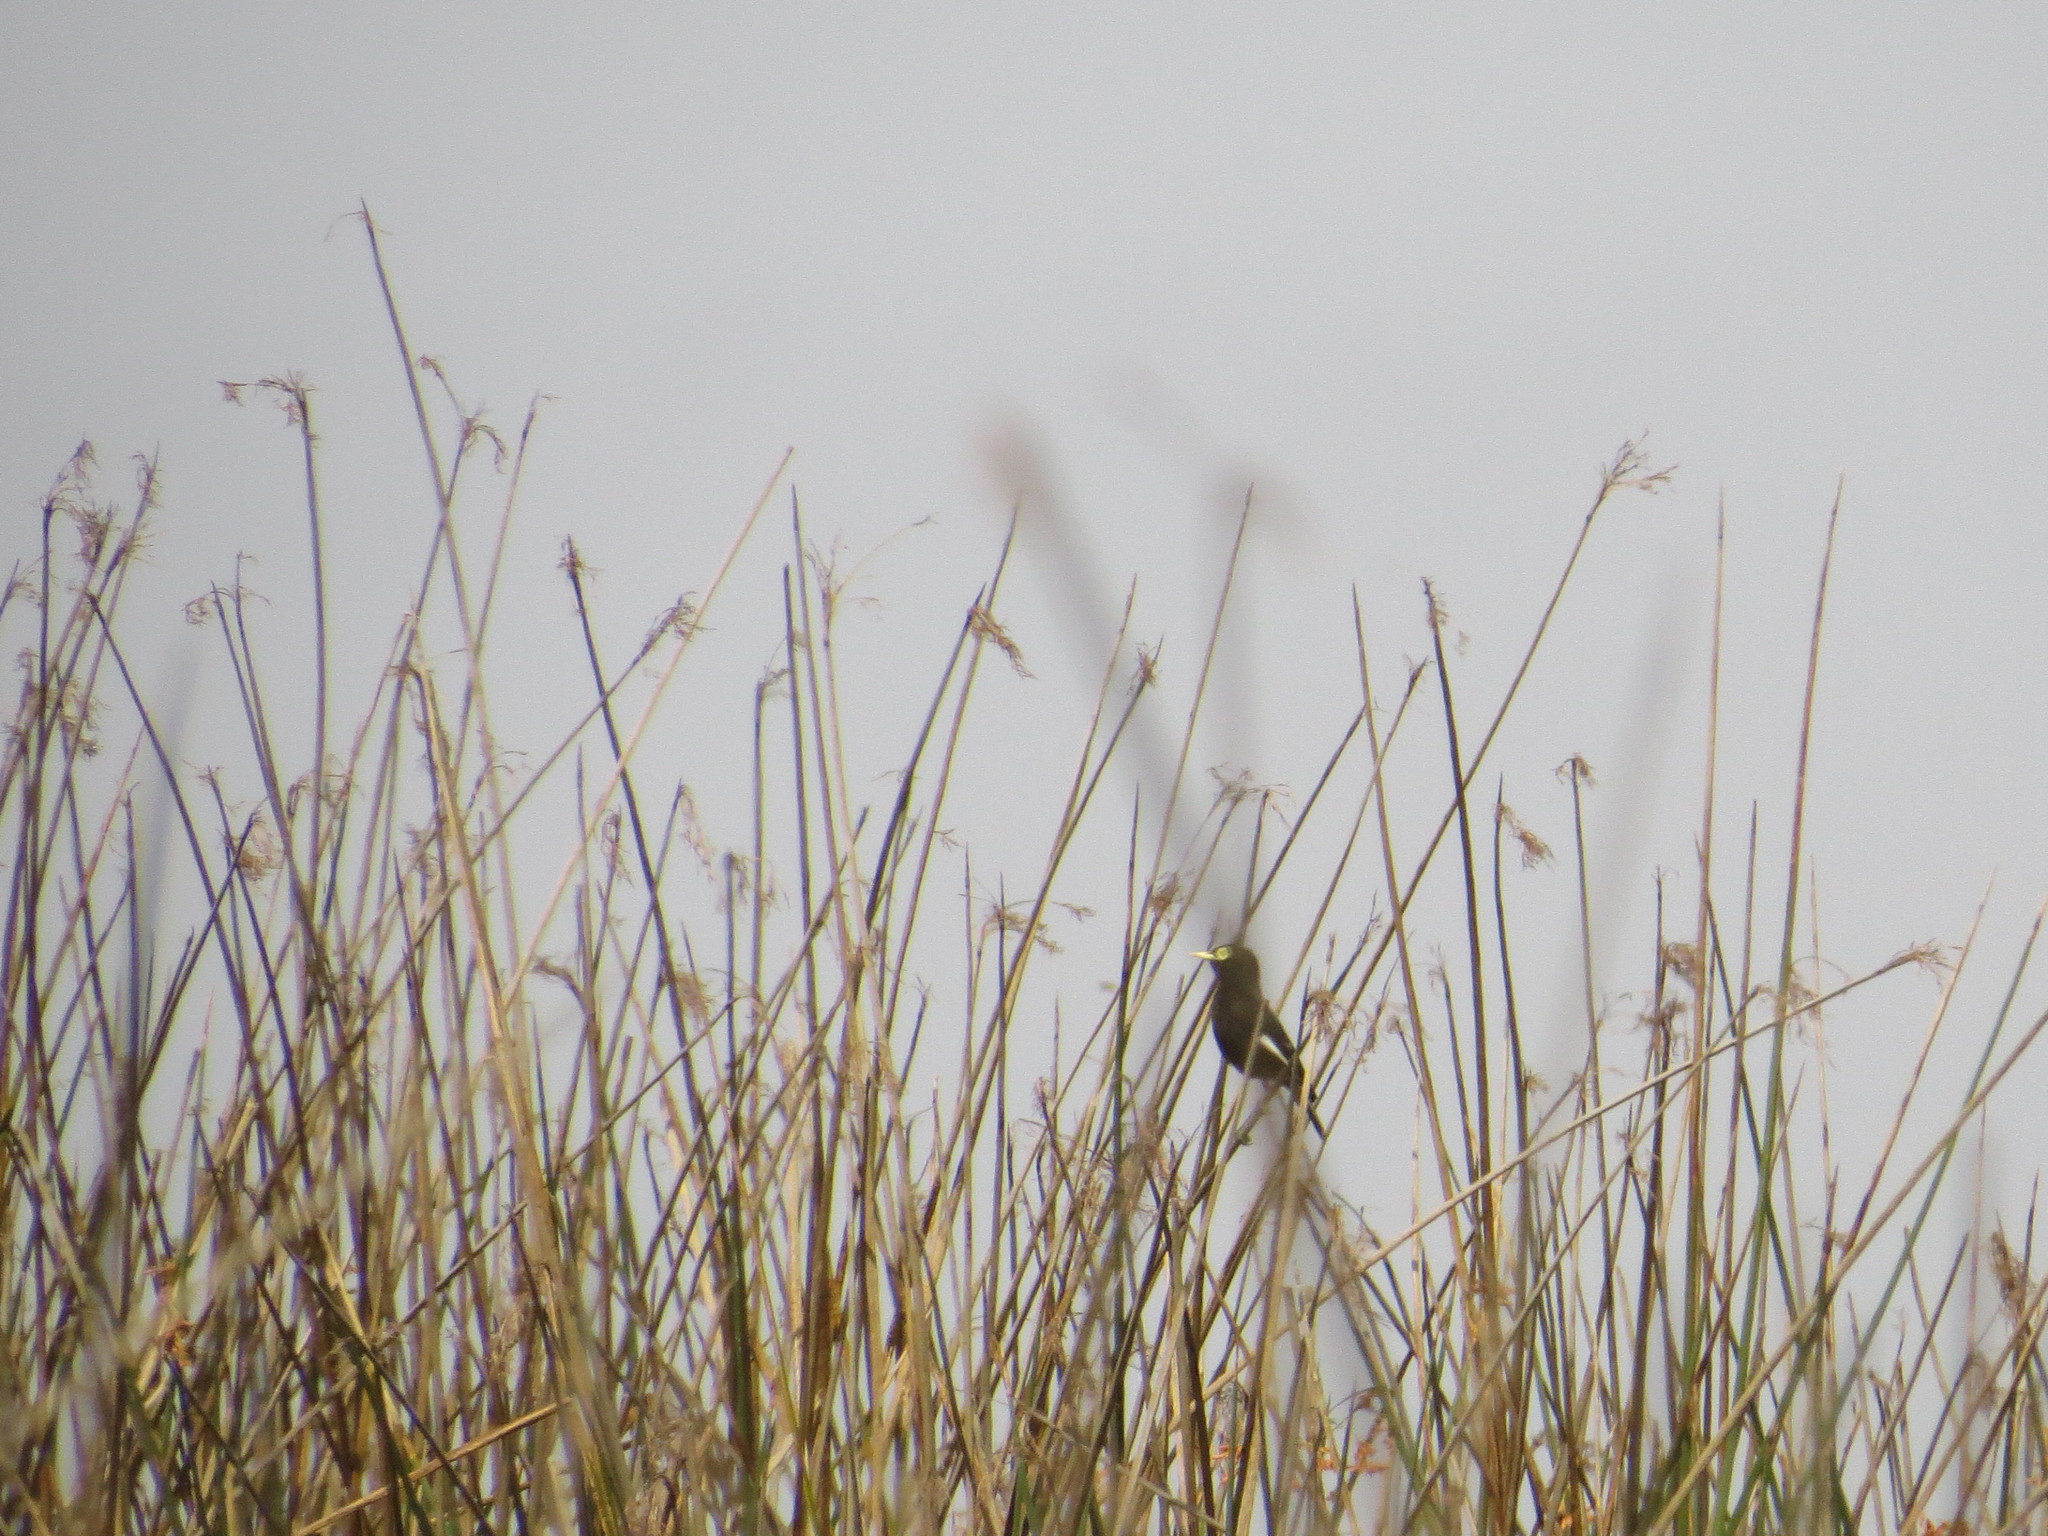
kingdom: Animalia
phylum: Chordata
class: Aves
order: Passeriformes
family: Tyrannidae
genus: Hymenops
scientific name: Hymenops perspicillatus
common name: Spectacled tyrant
